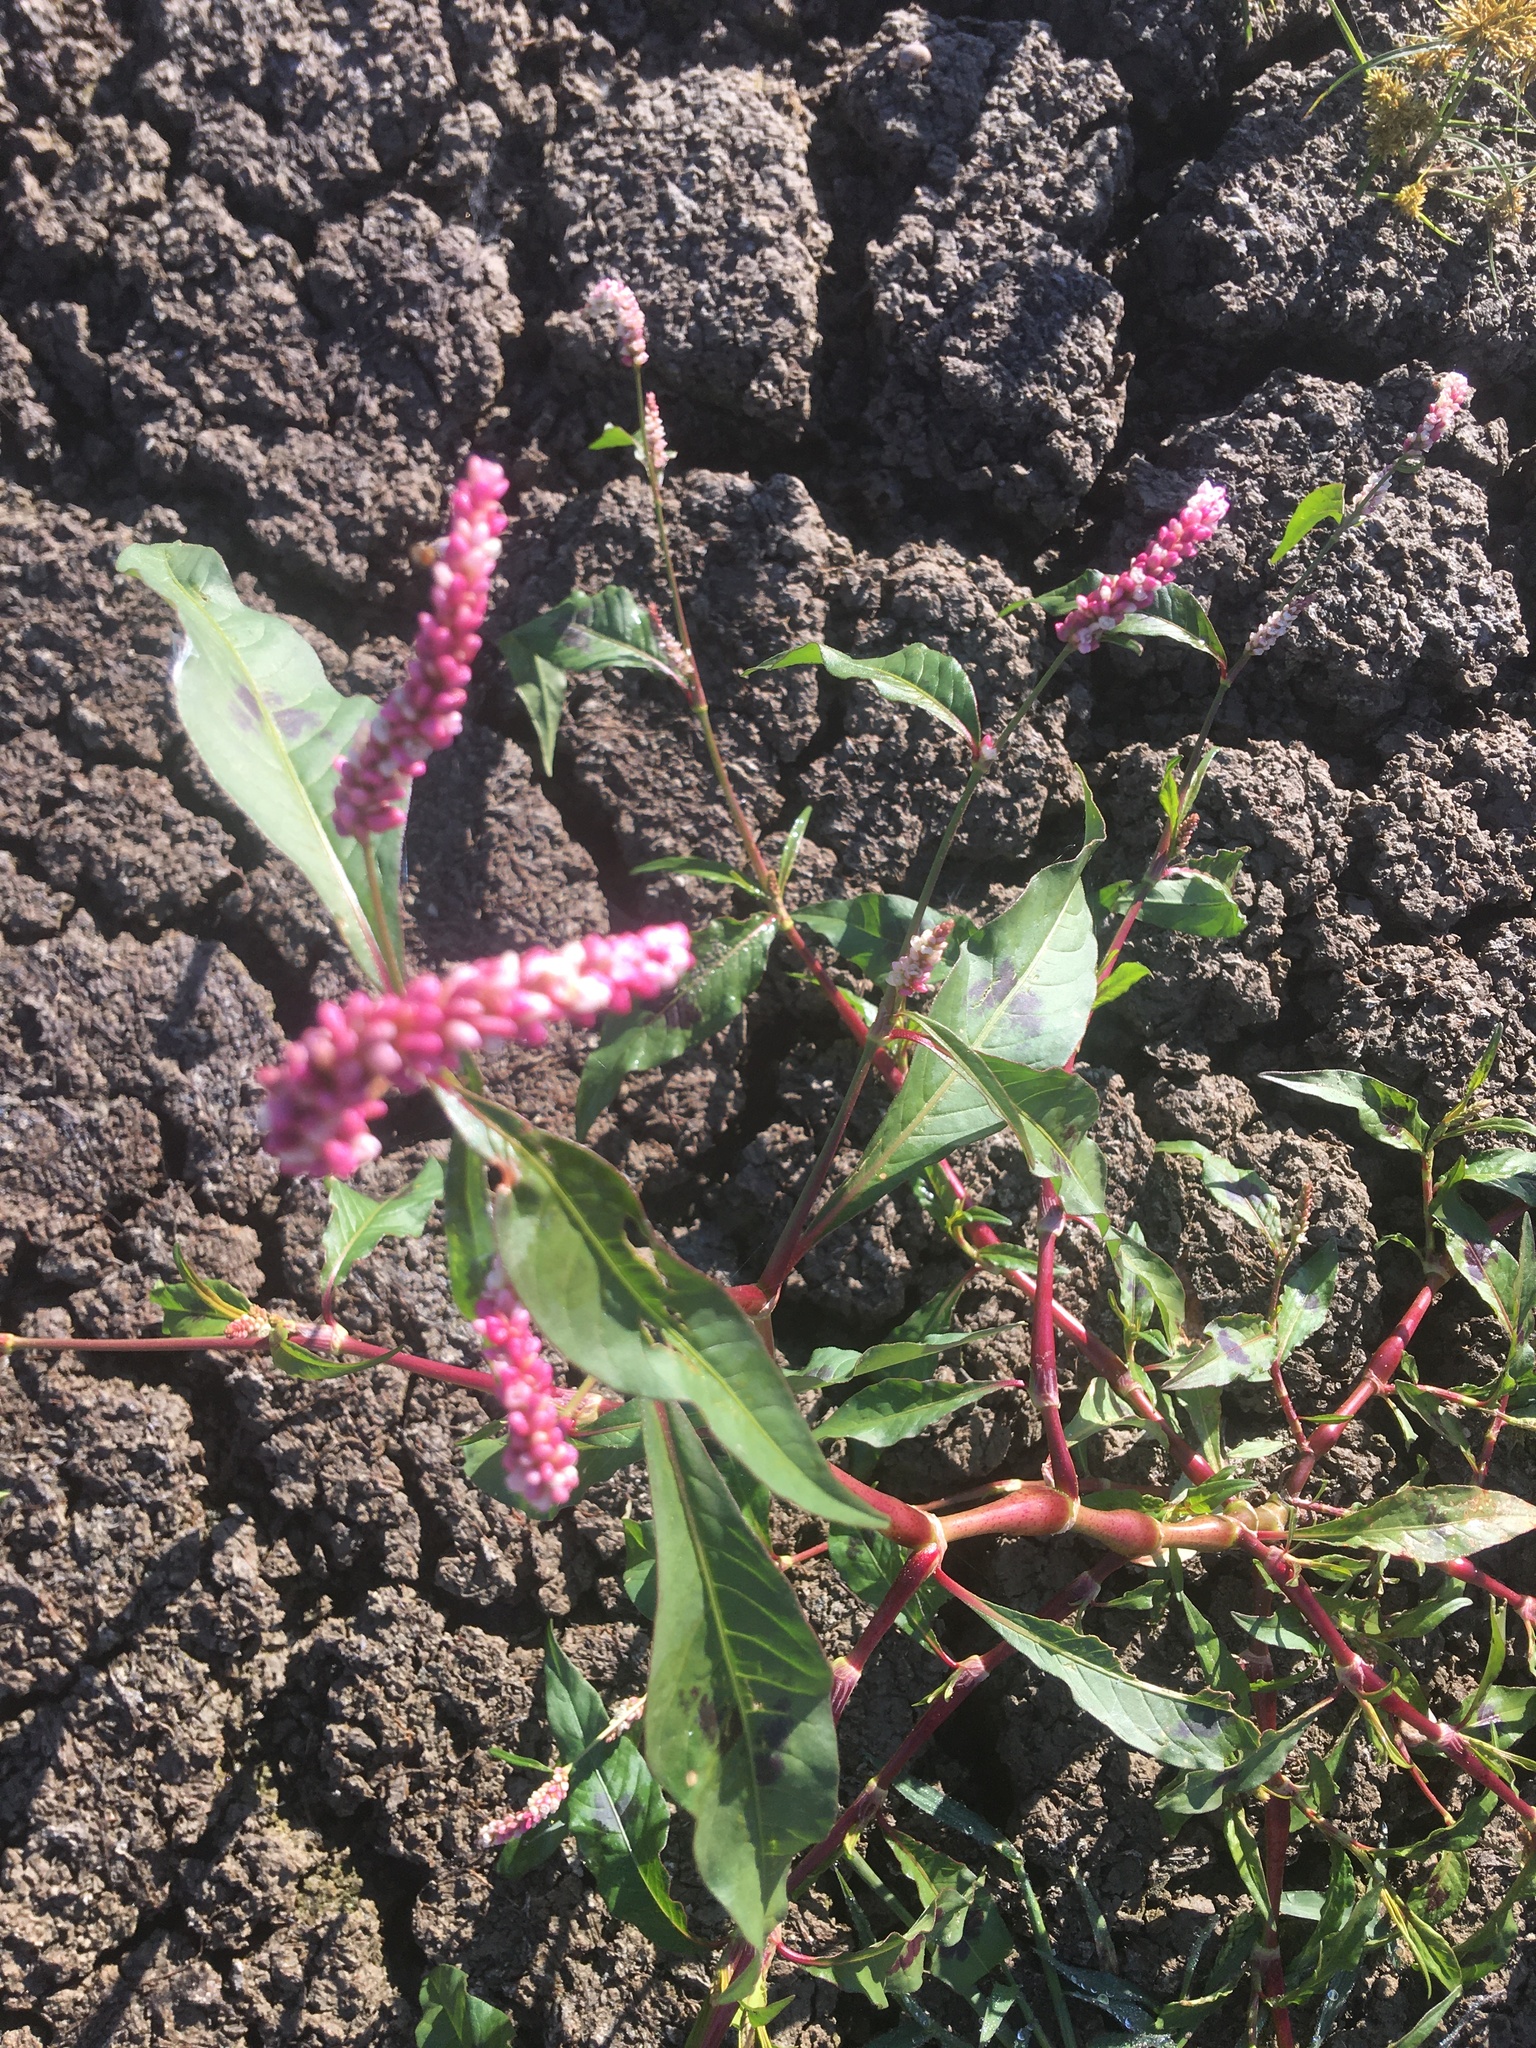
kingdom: Plantae
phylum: Tracheophyta
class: Magnoliopsida
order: Caryophyllales
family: Polygonaceae
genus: Persicaria
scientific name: Persicaria longiseta
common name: Bristly lady's-thumb
